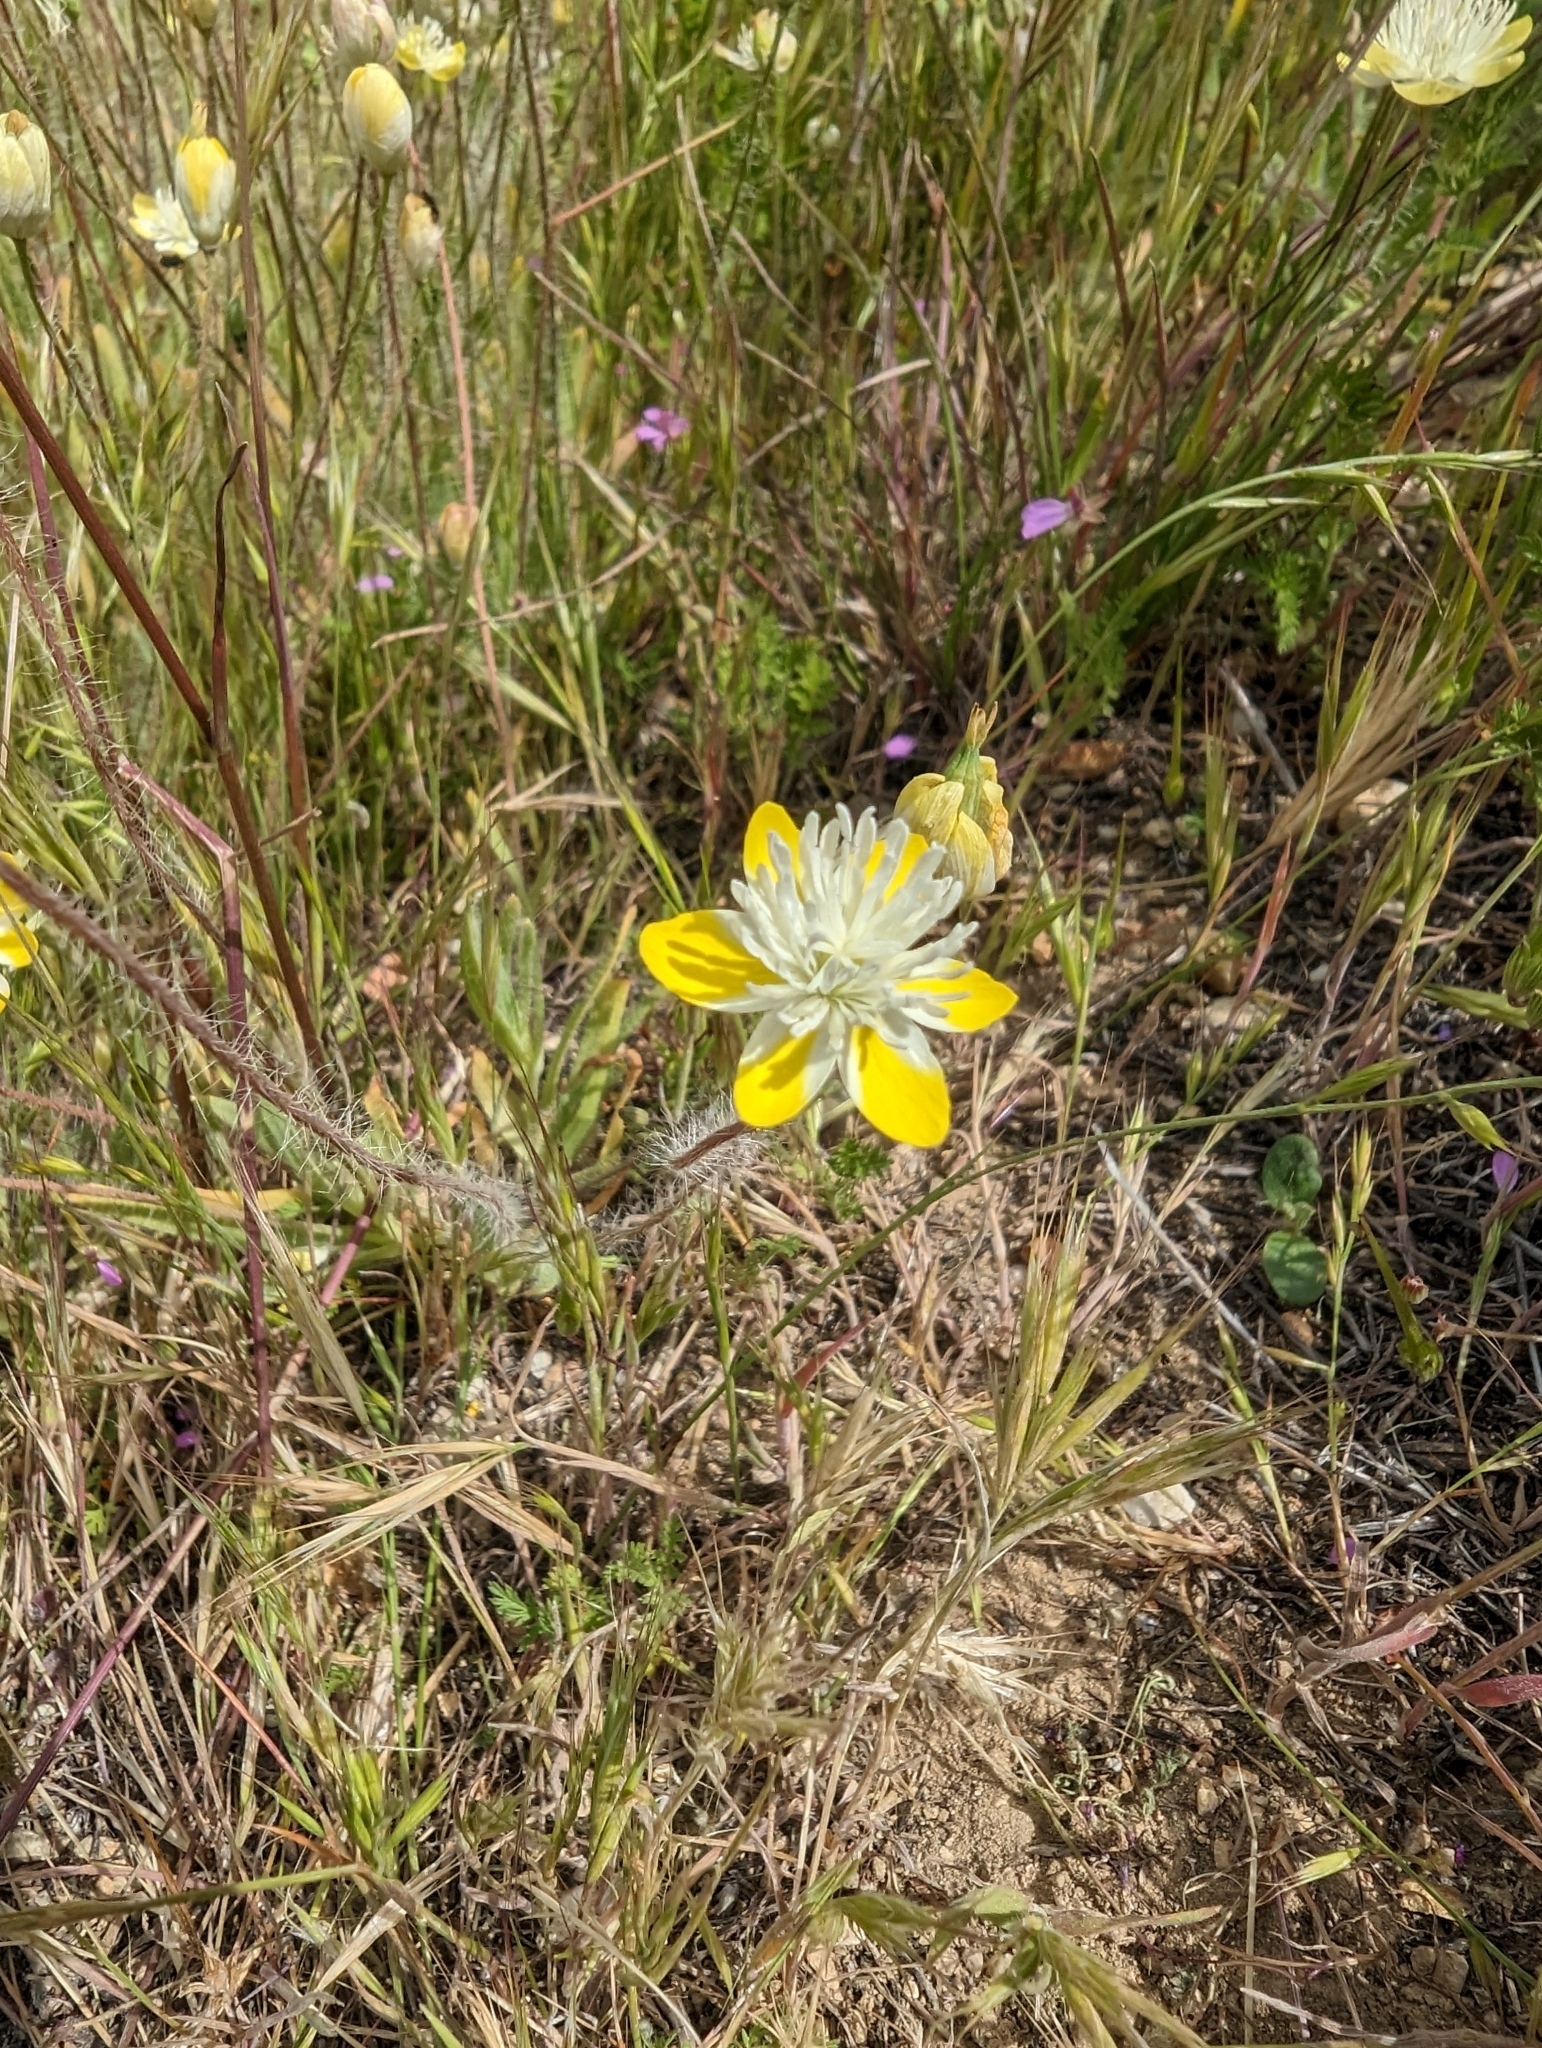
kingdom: Plantae
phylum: Tracheophyta
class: Magnoliopsida
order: Ranunculales
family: Papaveraceae
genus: Platystemon
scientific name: Platystemon californicus
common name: Cream-cups
